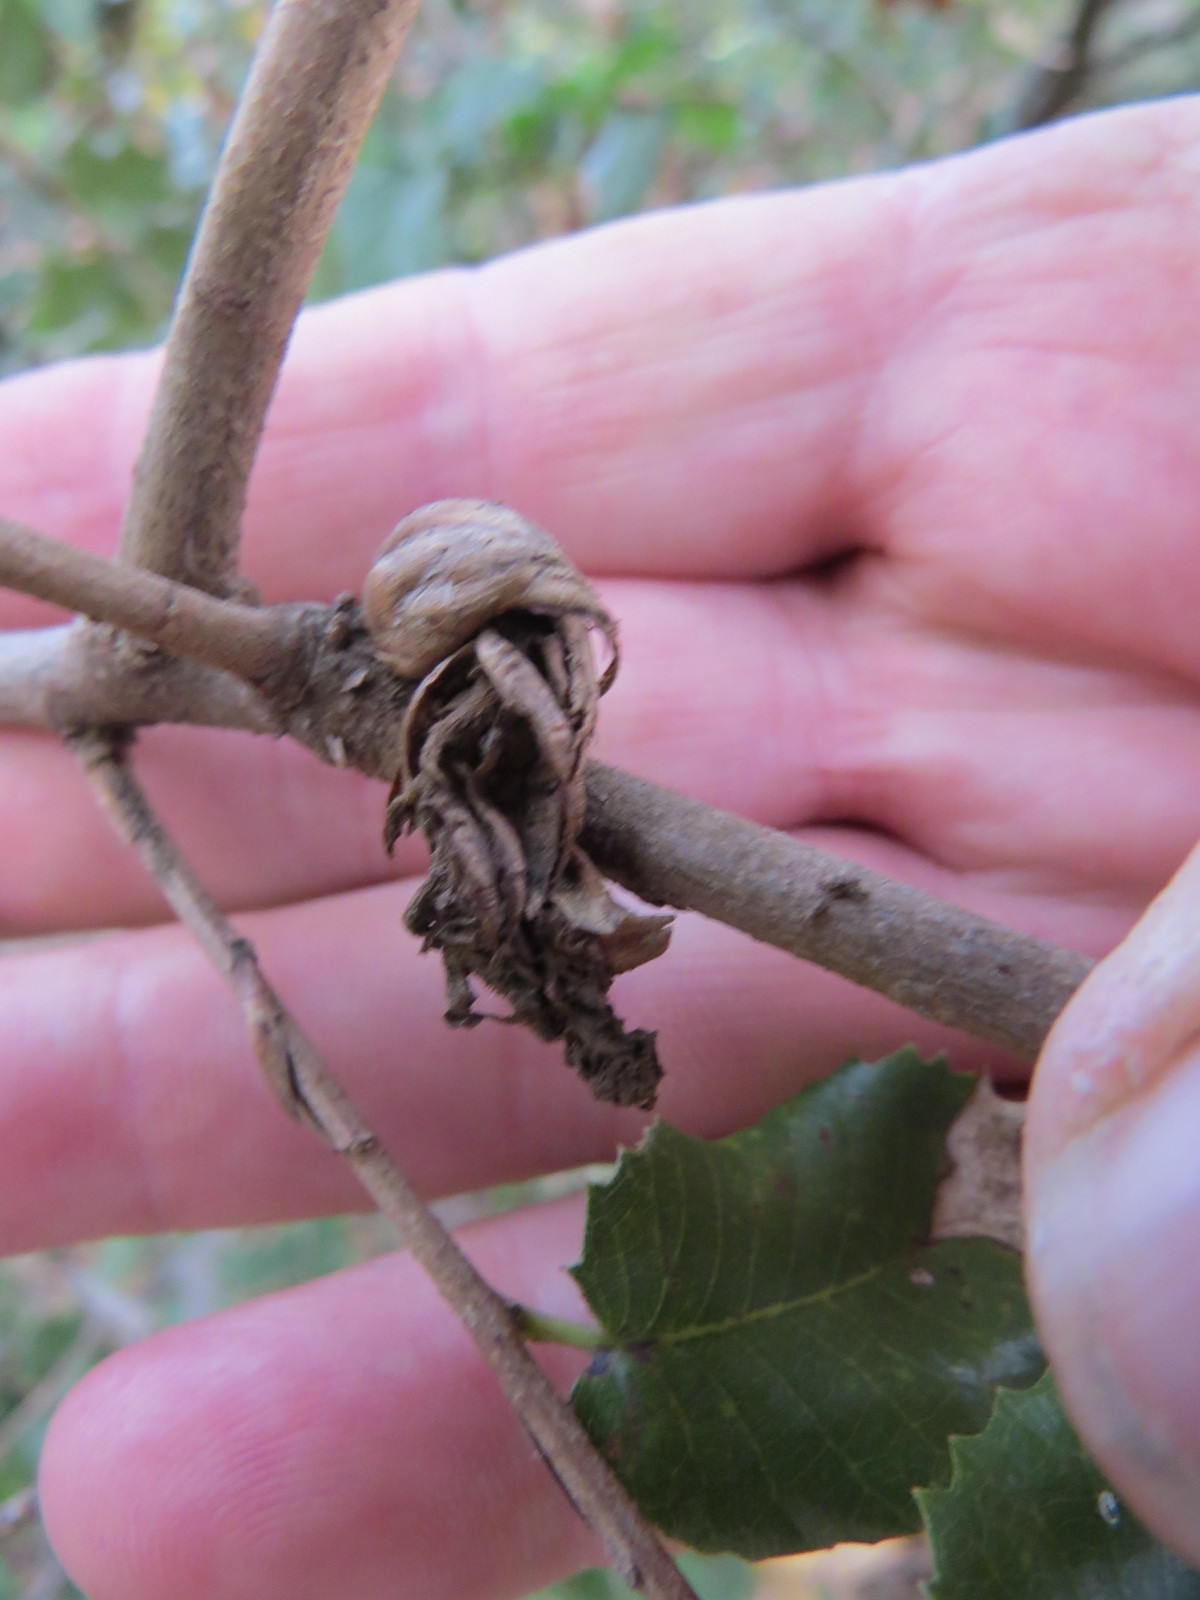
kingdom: Animalia
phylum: Arthropoda
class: Insecta
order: Hymenoptera
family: Cynipidae
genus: Andricus
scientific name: Andricus
